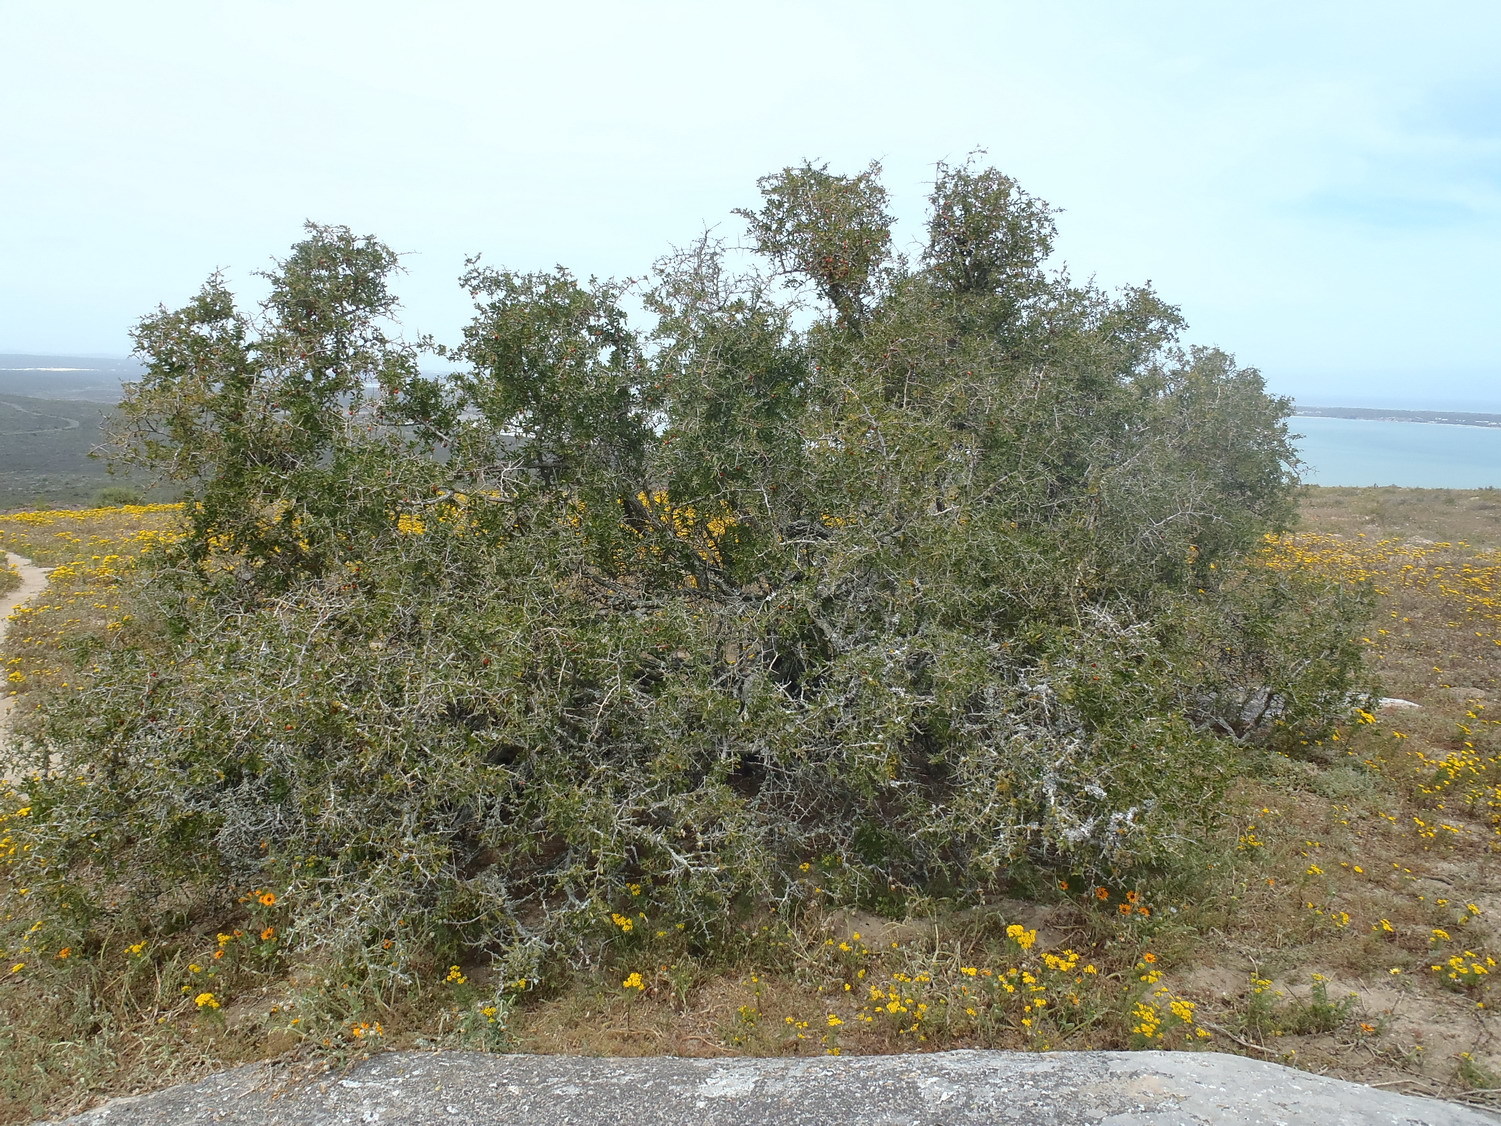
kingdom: Plantae
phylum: Tracheophyta
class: Magnoliopsida
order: Celastrales
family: Celastraceae
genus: Gymnosporia
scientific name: Gymnosporia buxifolia
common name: Common spike-thorn
